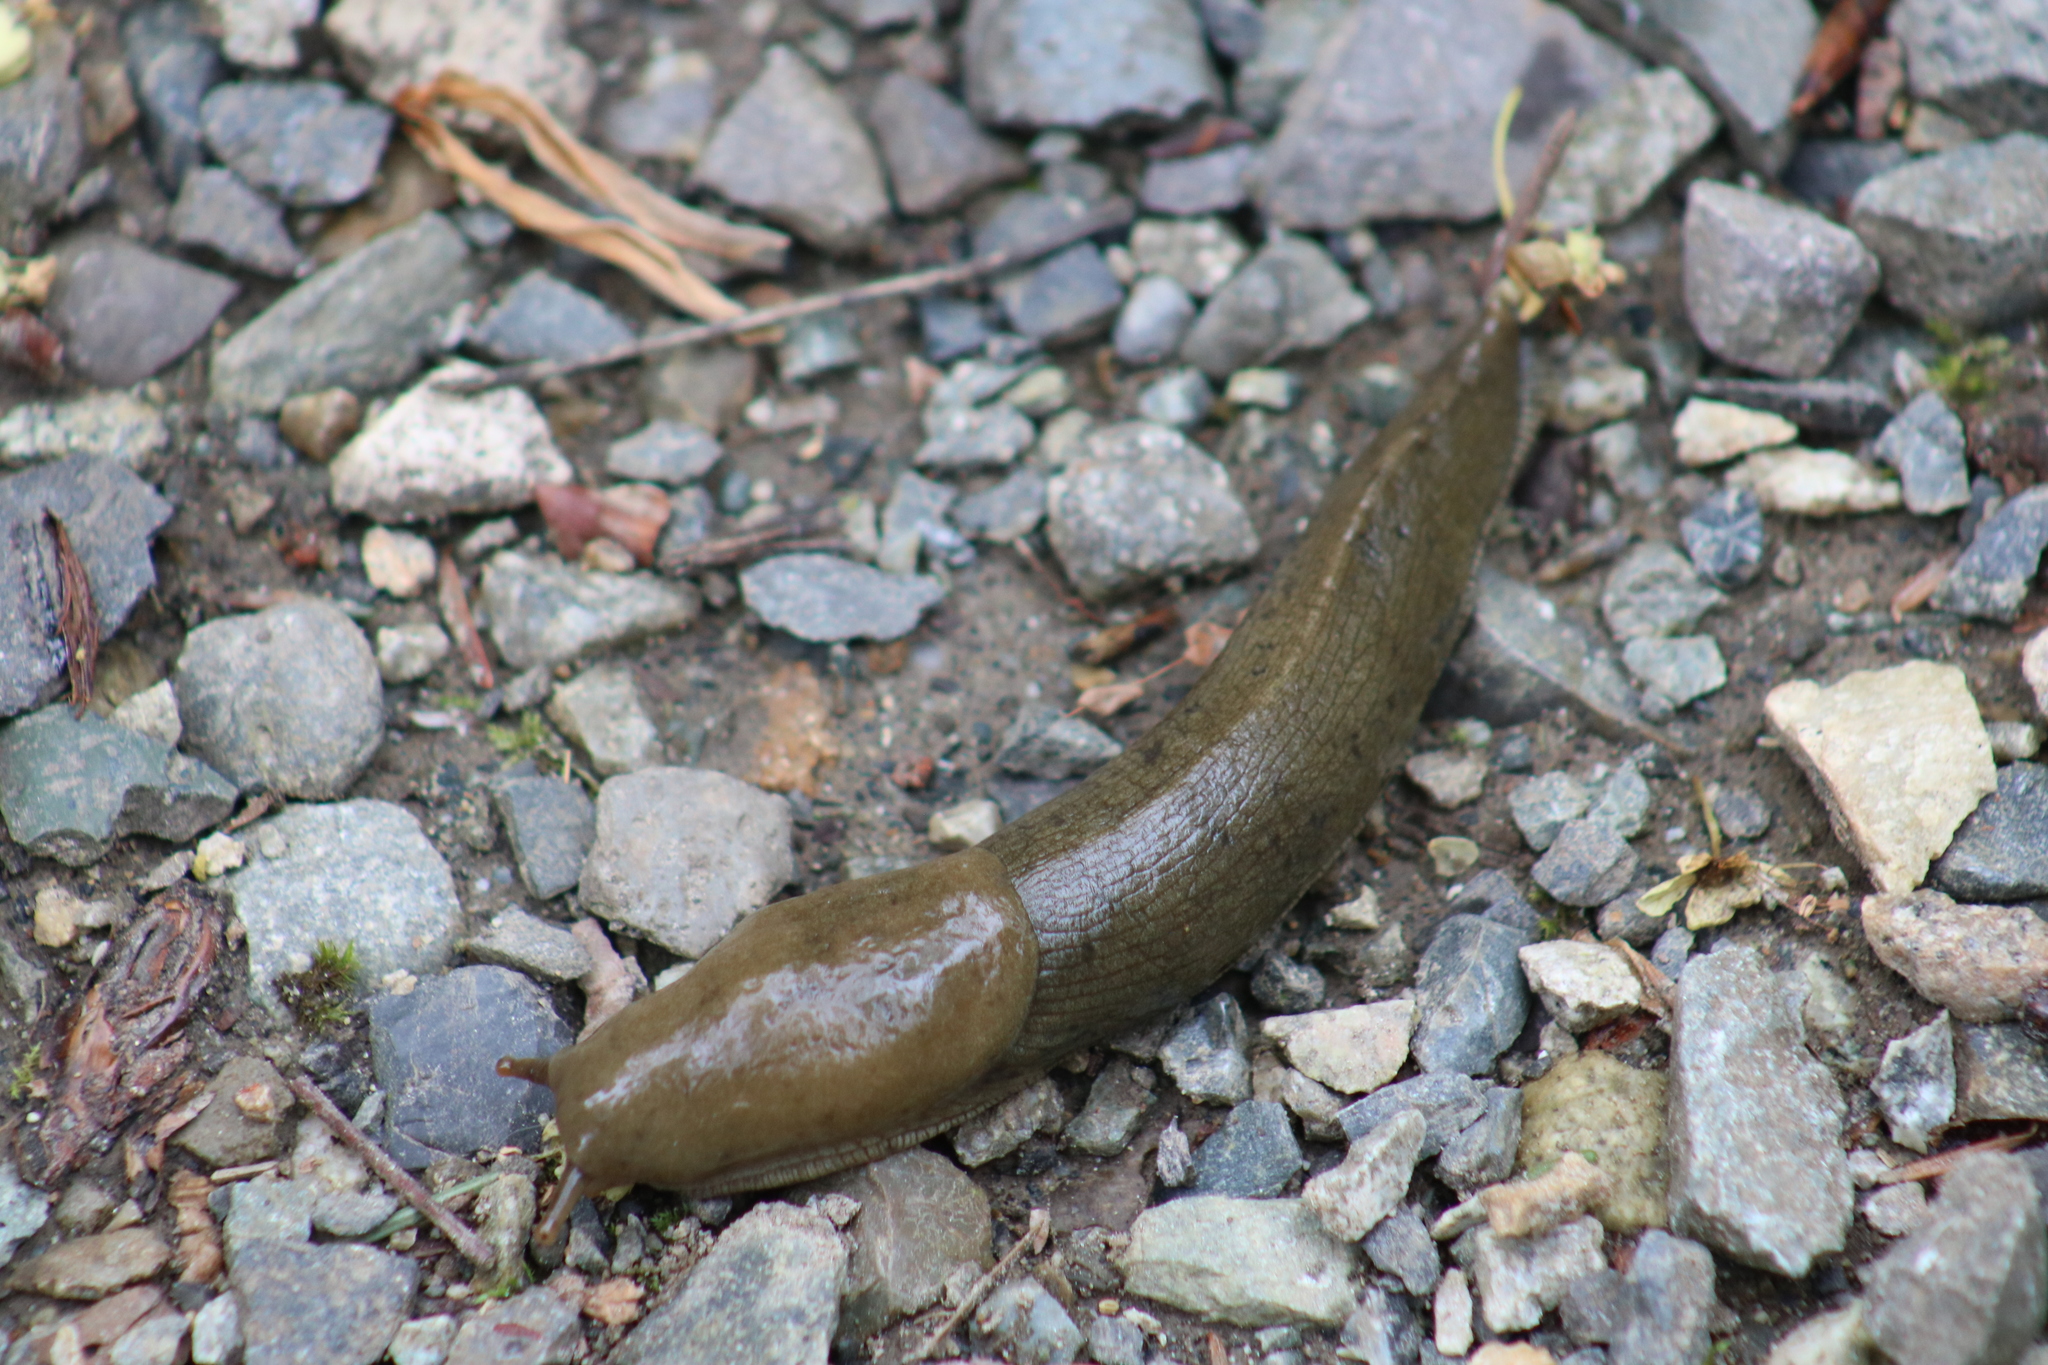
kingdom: Animalia
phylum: Mollusca
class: Gastropoda
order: Stylommatophora
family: Ariolimacidae
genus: Ariolimax
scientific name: Ariolimax columbianus
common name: Pacific banana slug
